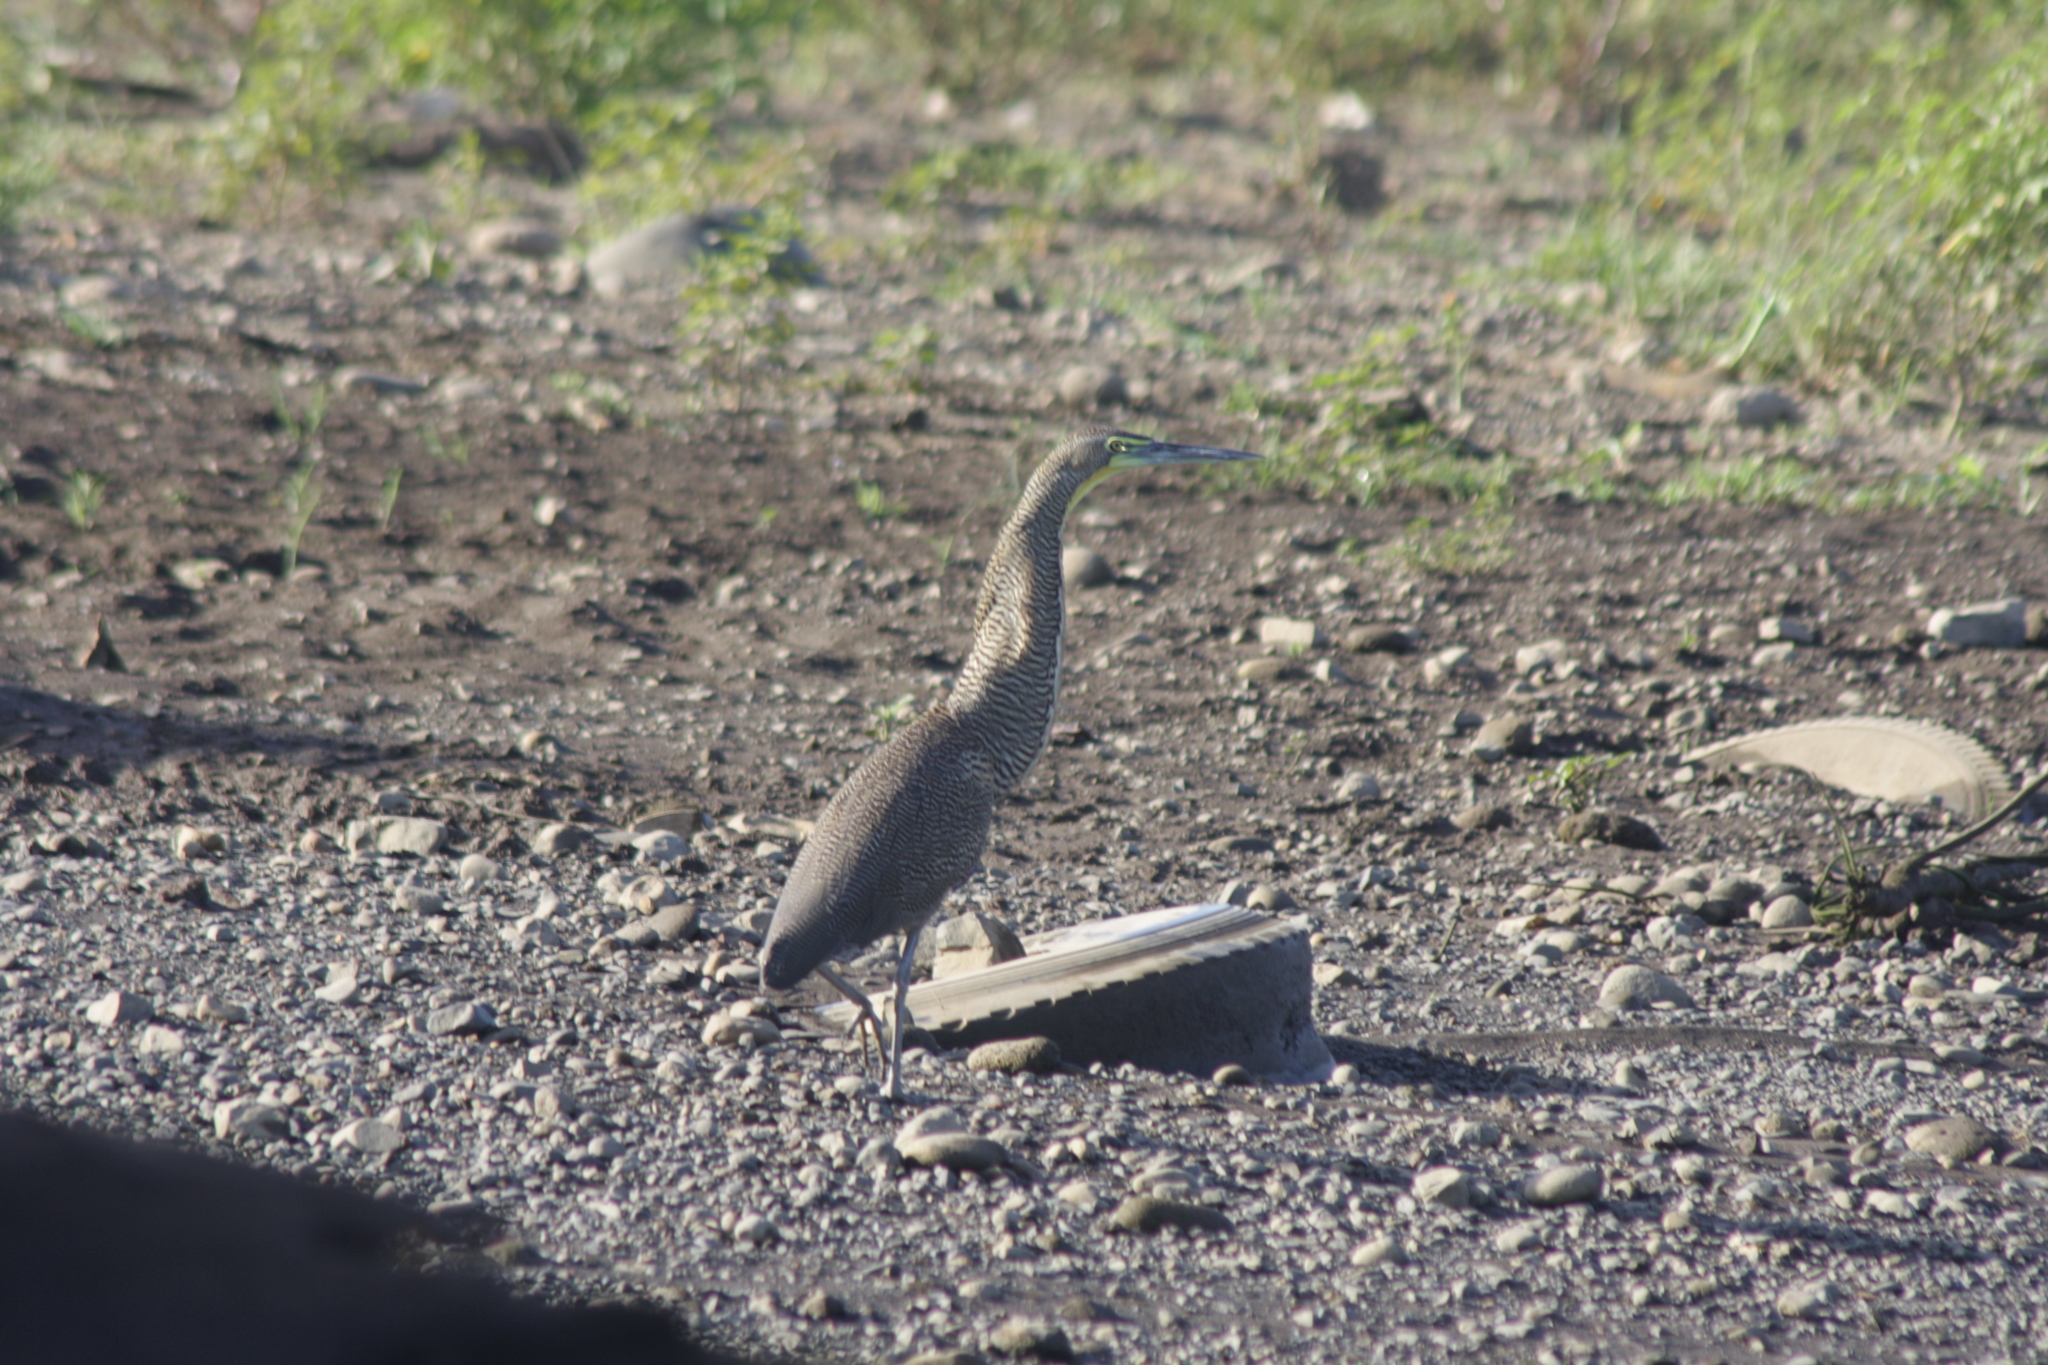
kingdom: Animalia
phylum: Chordata
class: Aves
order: Pelecaniformes
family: Ardeidae
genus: Tigrisoma
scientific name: Tigrisoma mexicanum
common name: Bare-throated tiger-heron
